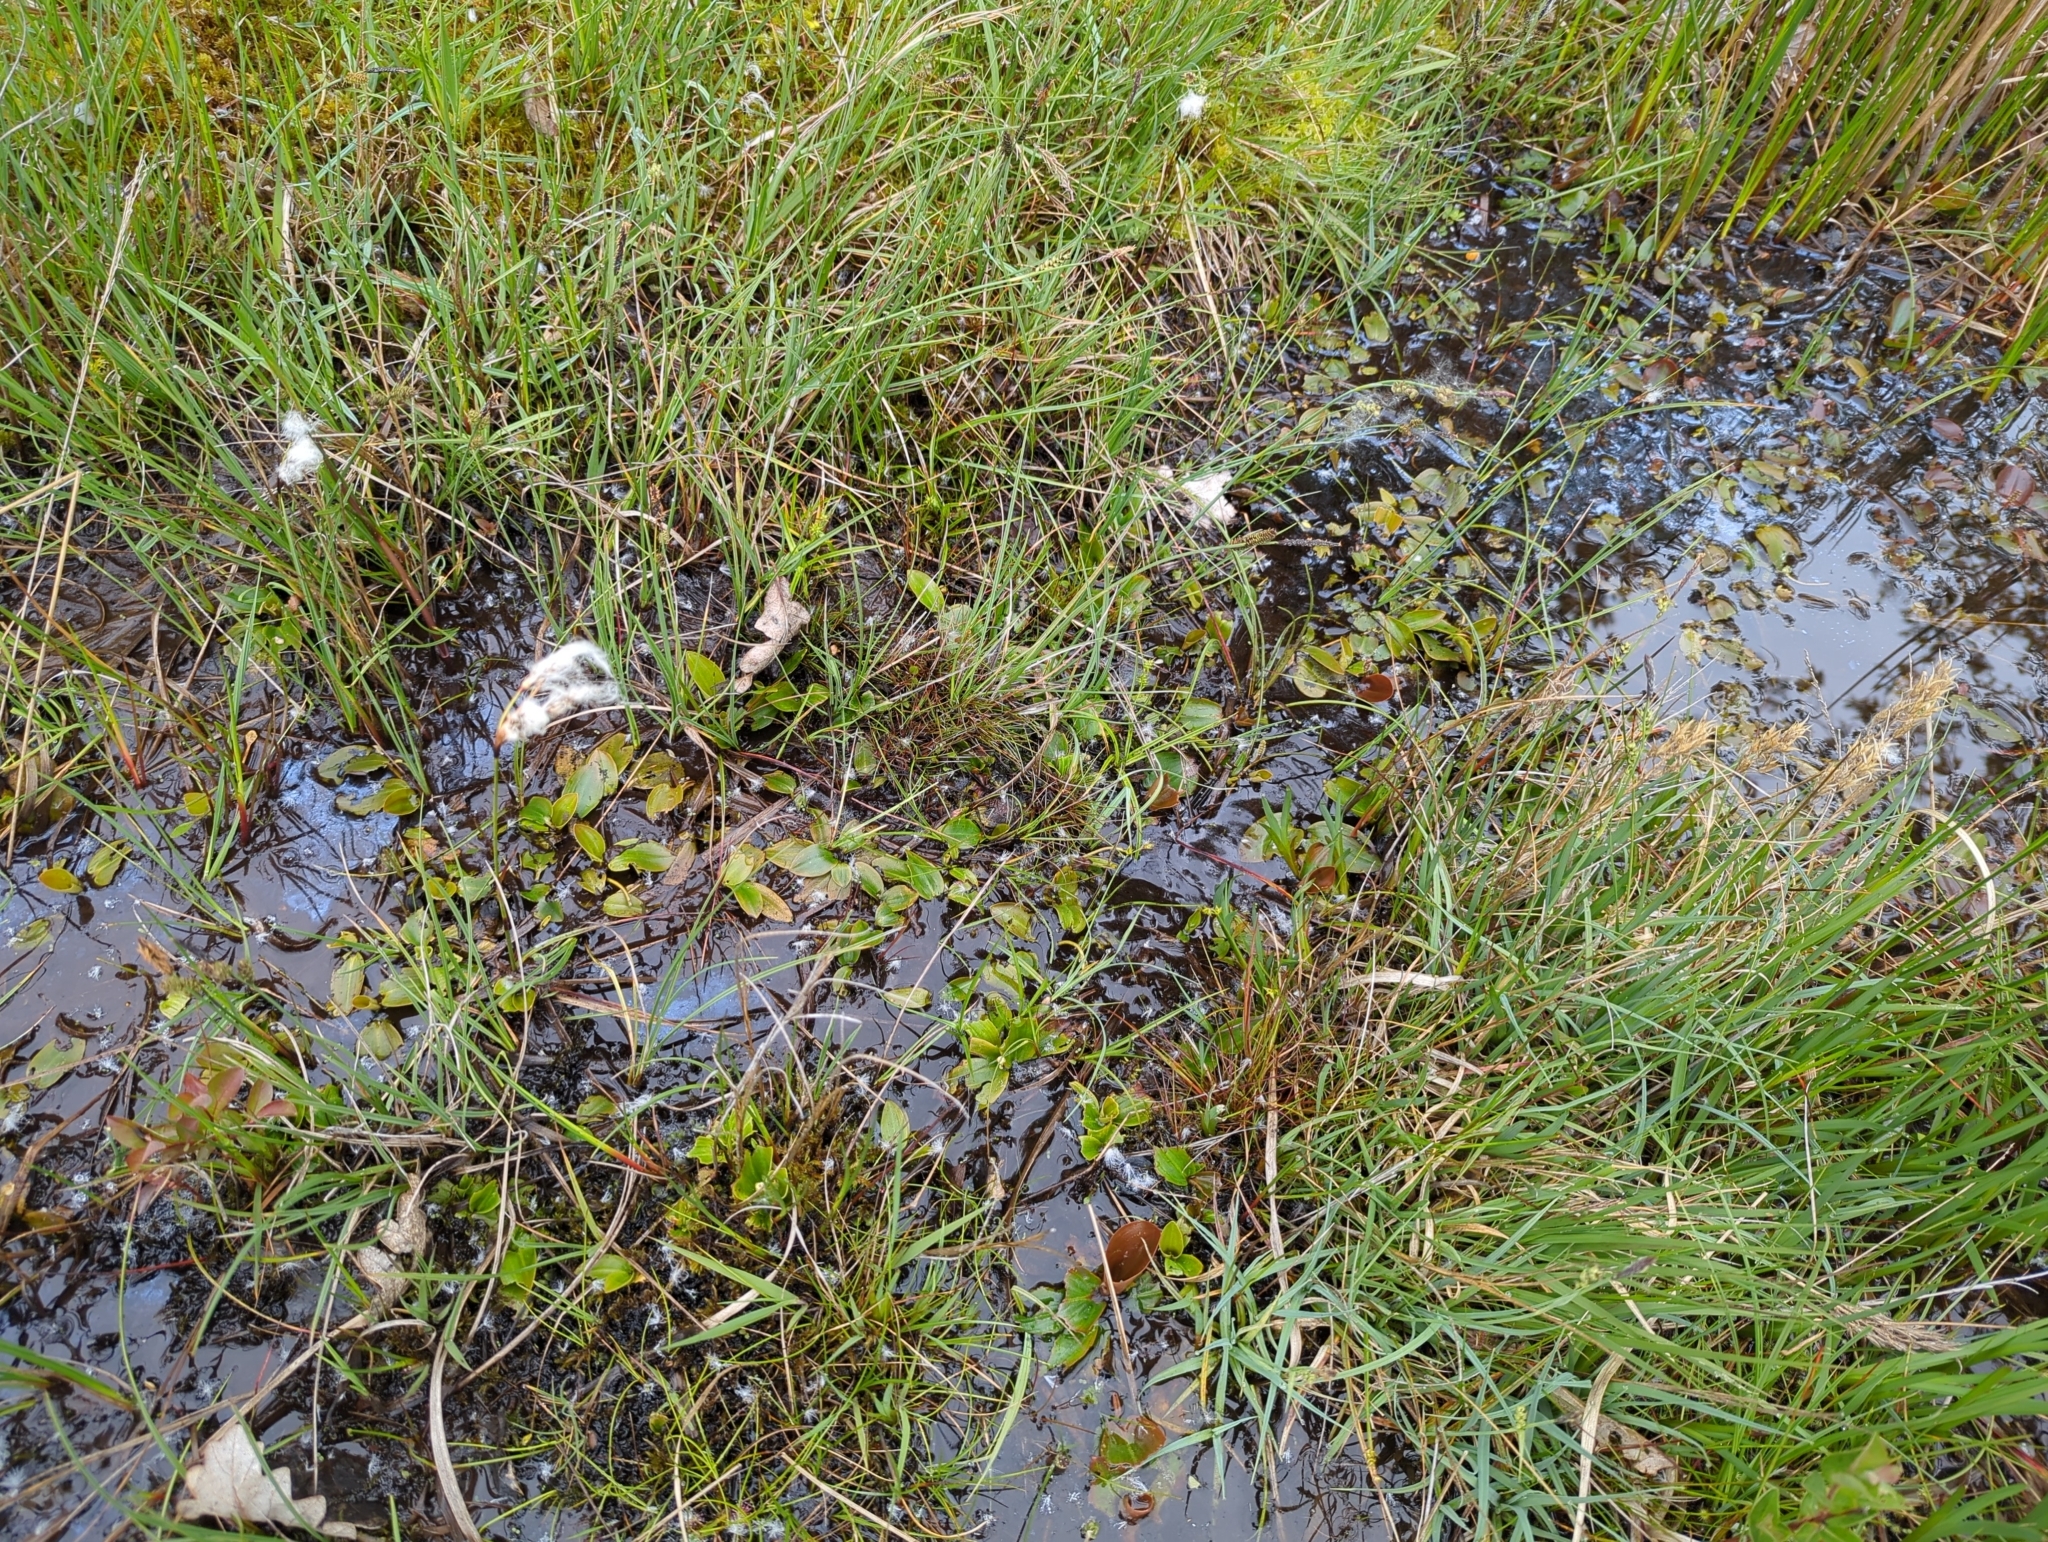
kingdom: Plantae
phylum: Tracheophyta
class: Liliopsida
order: Alismatales
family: Potamogetonaceae
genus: Potamogeton
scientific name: Potamogeton polygonifolius
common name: Bog pondweed
